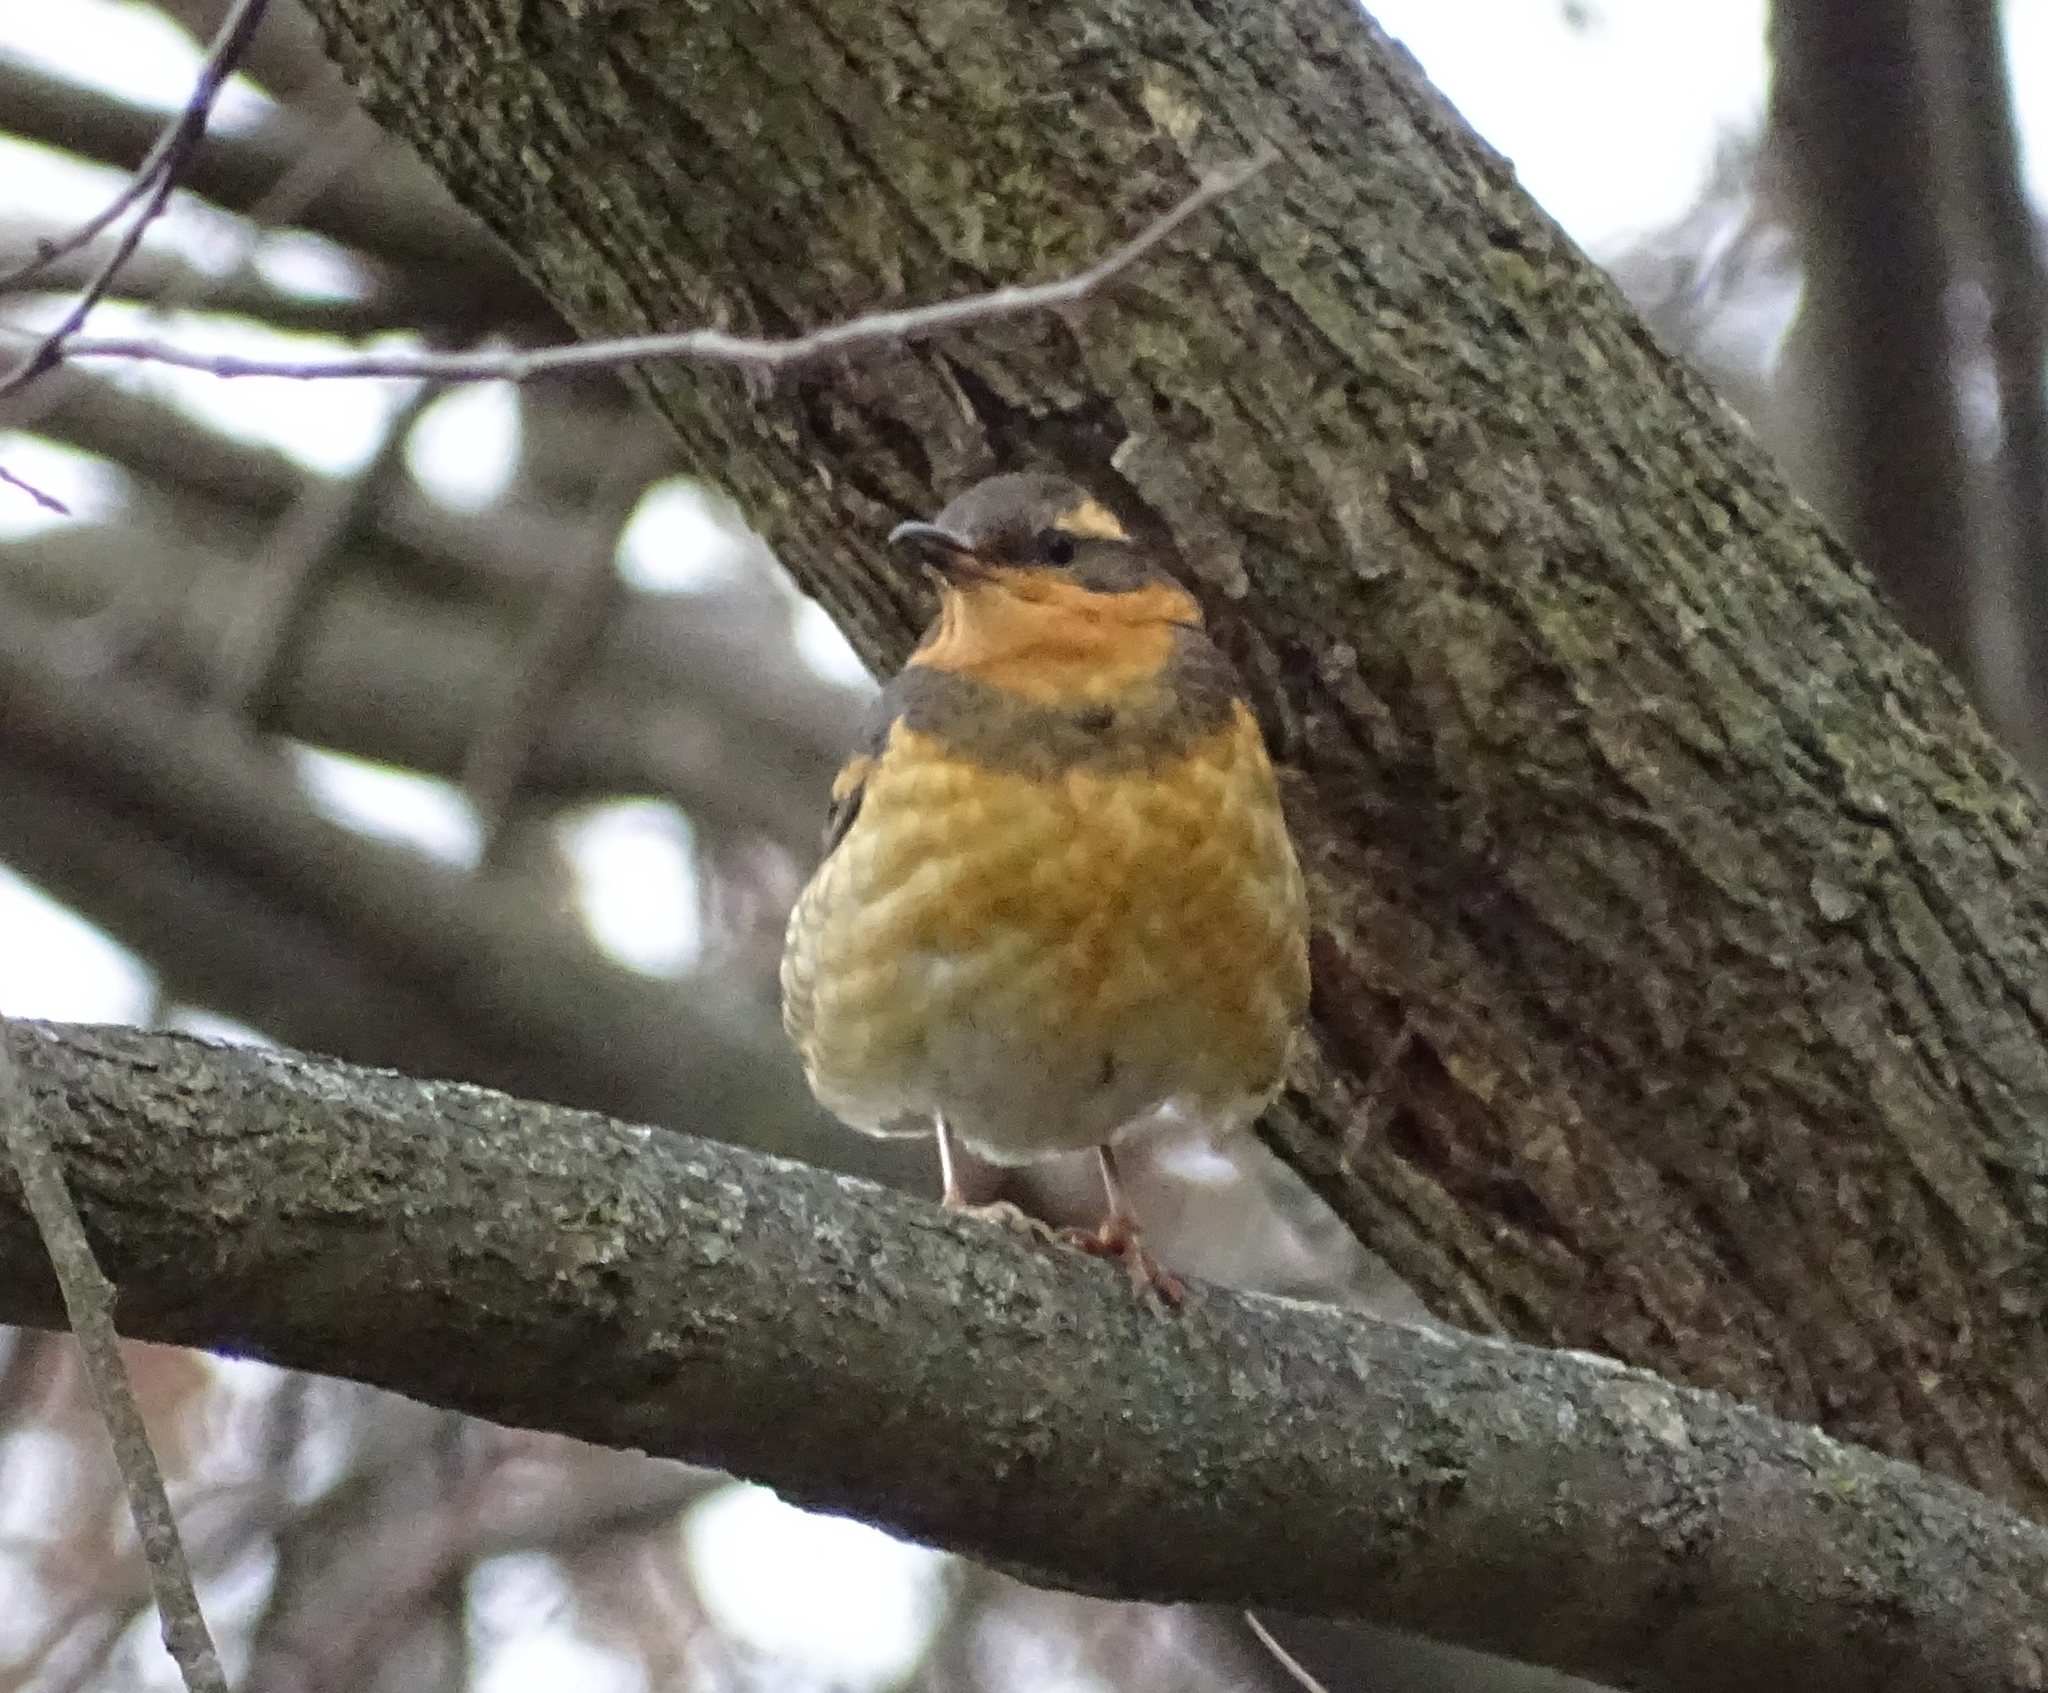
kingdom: Animalia
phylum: Chordata
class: Aves
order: Passeriformes
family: Turdidae
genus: Ixoreus
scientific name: Ixoreus naevius
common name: Varied thrush
